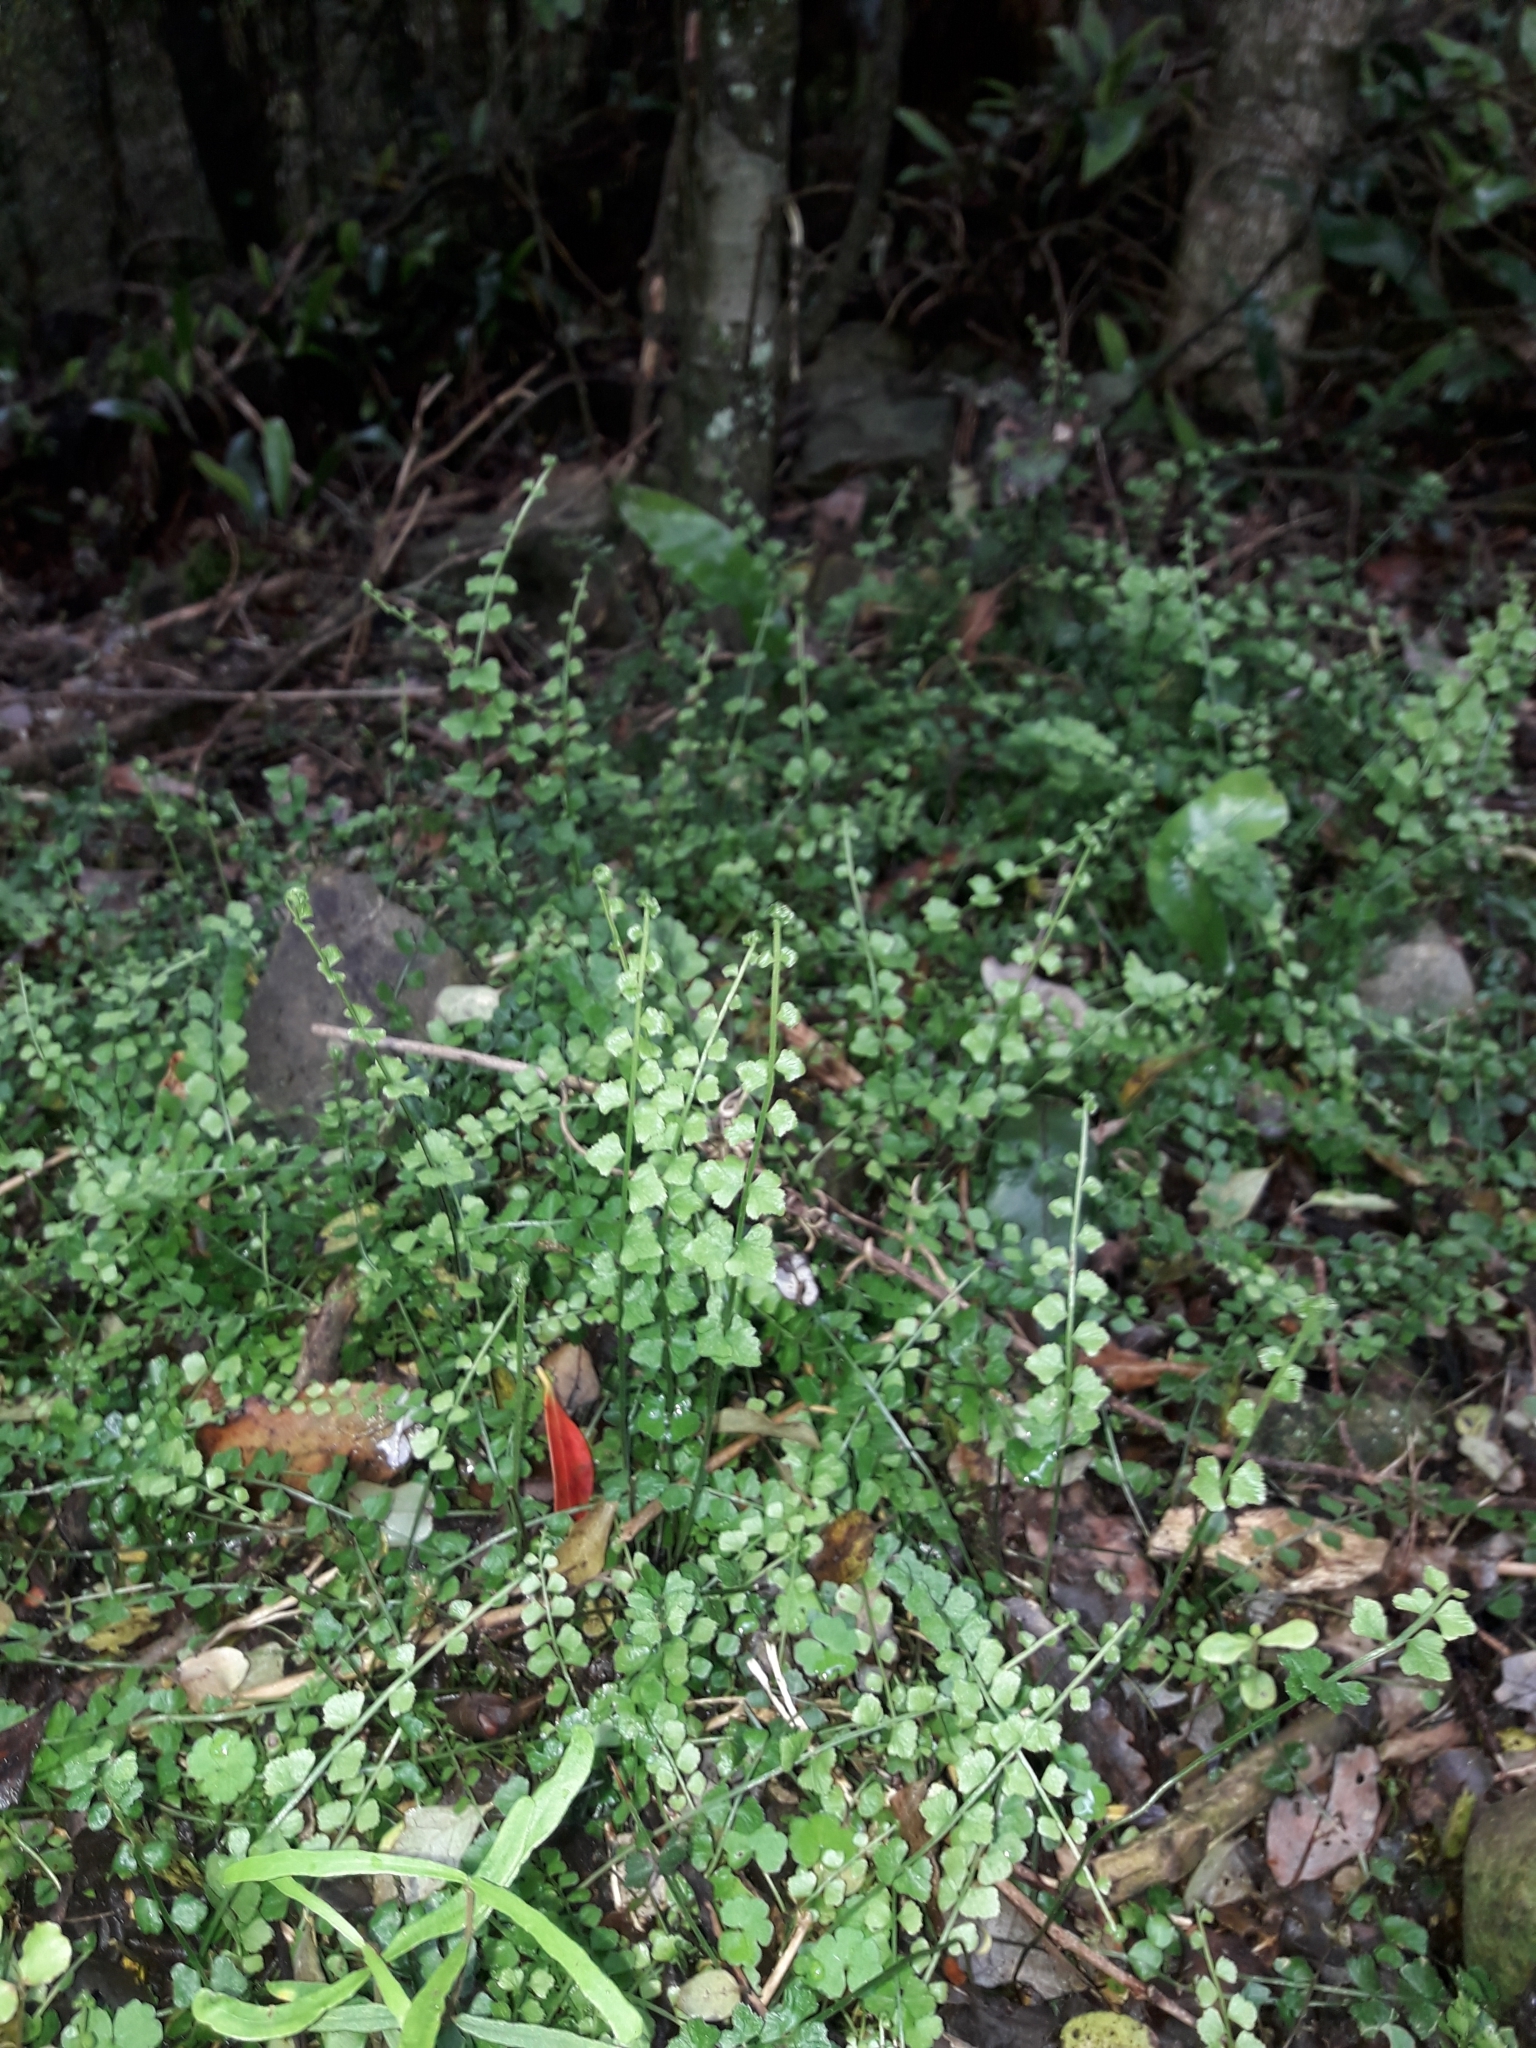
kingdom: Plantae
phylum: Tracheophyta
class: Polypodiopsida
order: Polypodiales
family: Aspleniaceae
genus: Asplenium
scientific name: Asplenium flabellifolium
